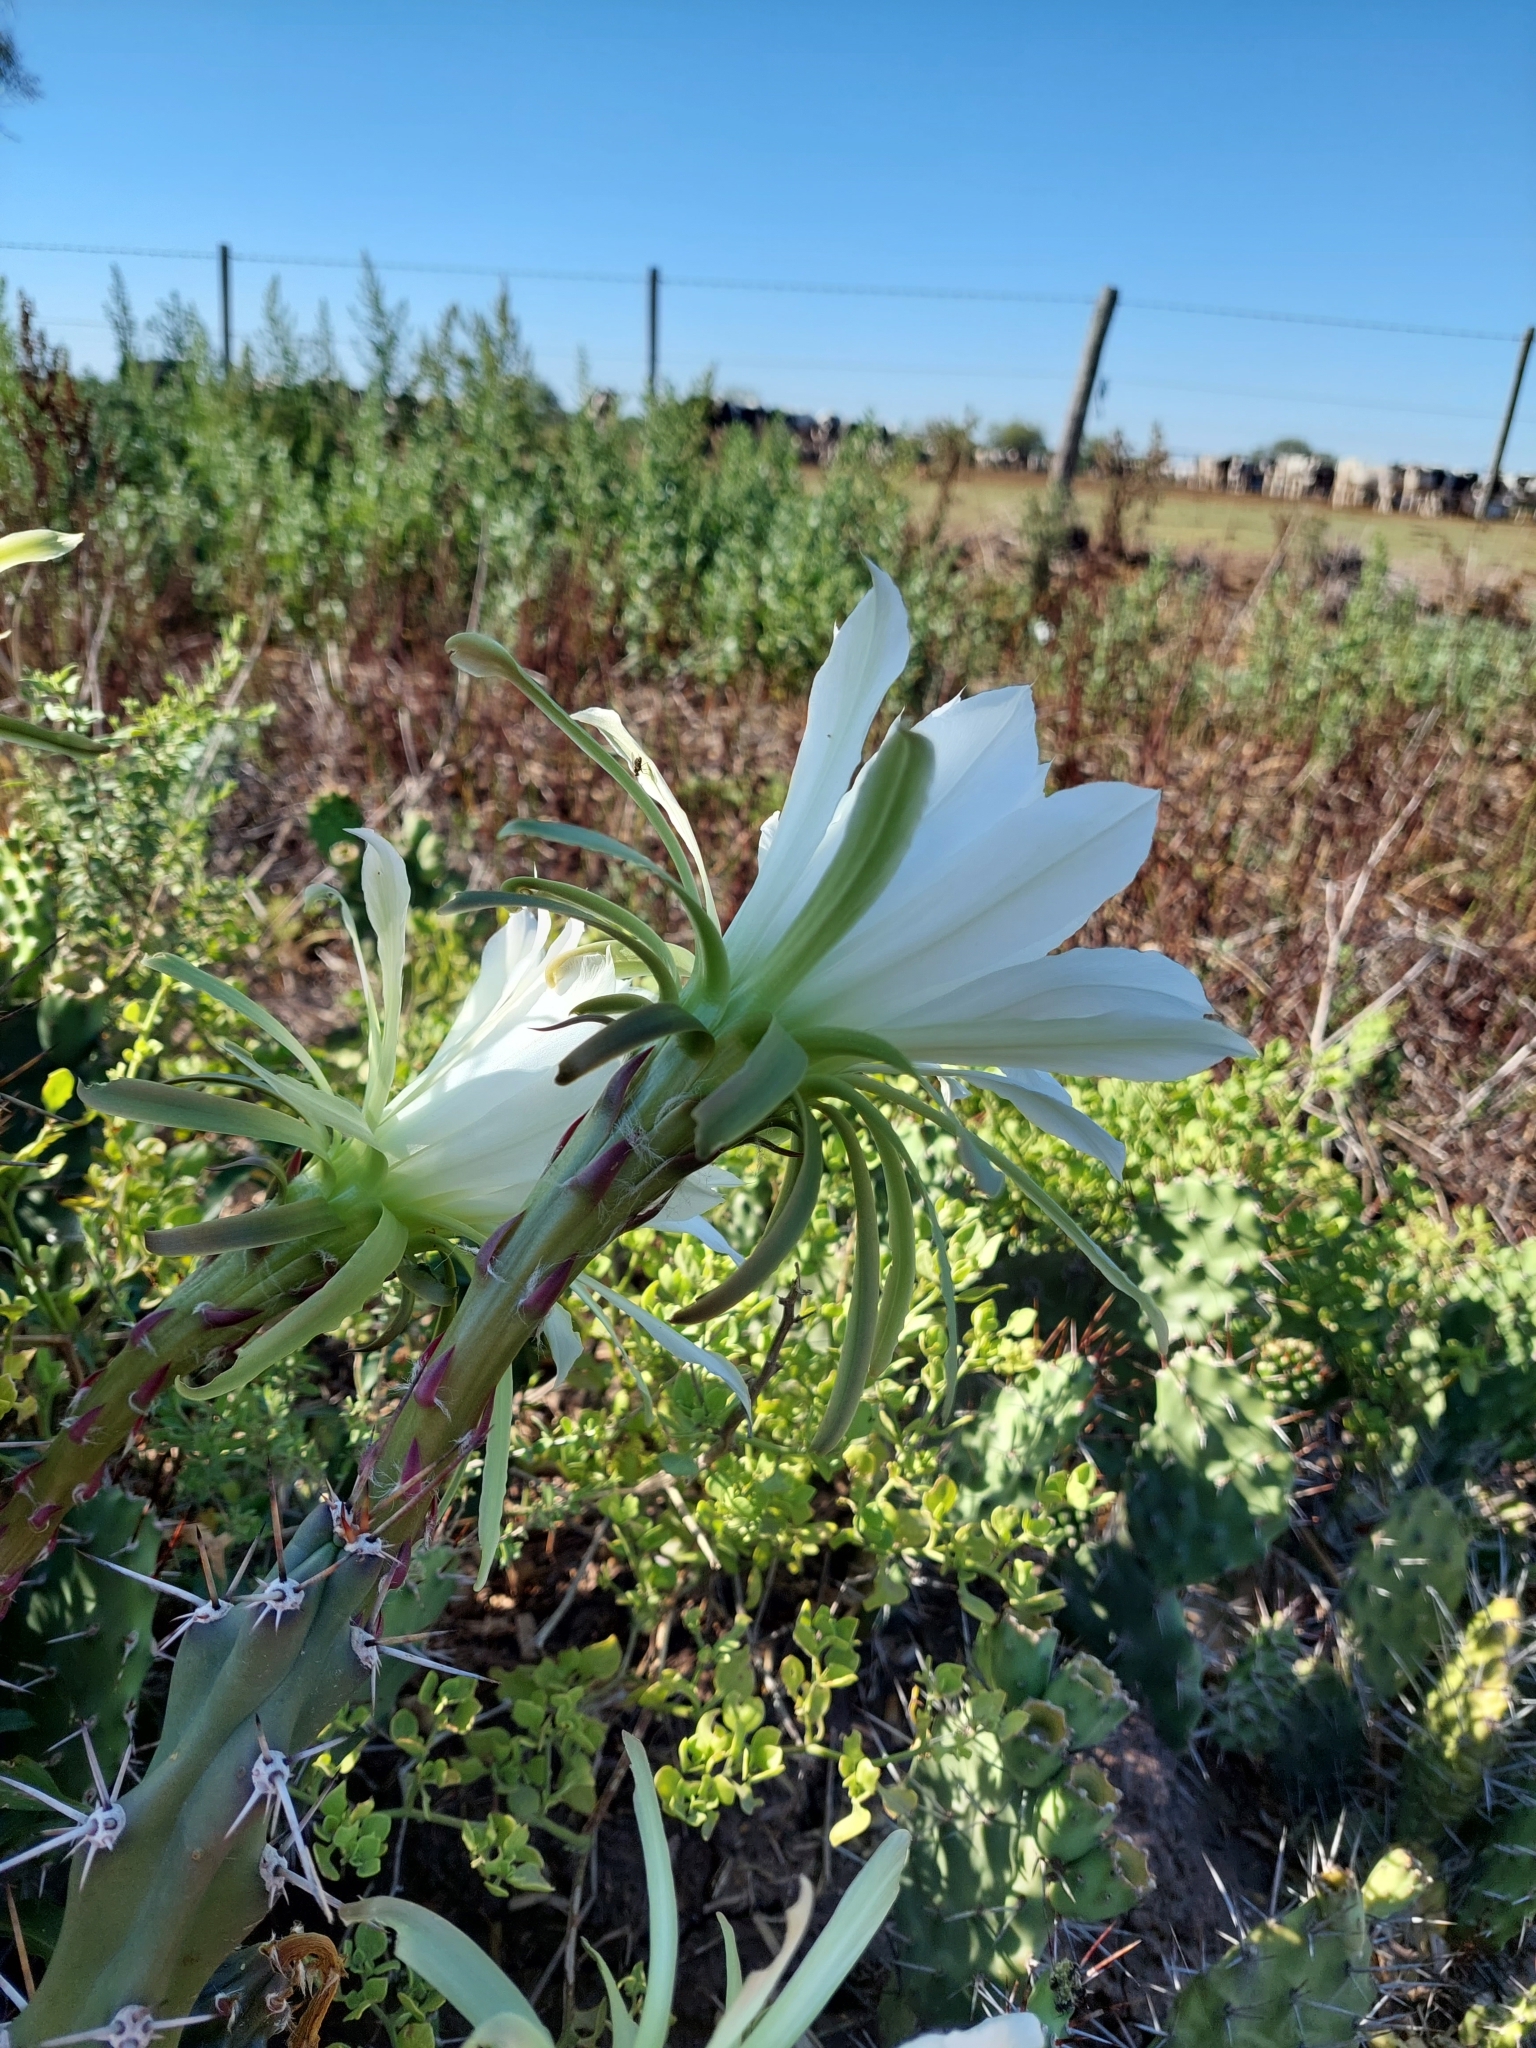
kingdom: Plantae
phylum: Tracheophyta
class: Magnoliopsida
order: Caryophyllales
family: Cactaceae
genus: Harrisia
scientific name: Harrisia martinii
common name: Moon cactus
